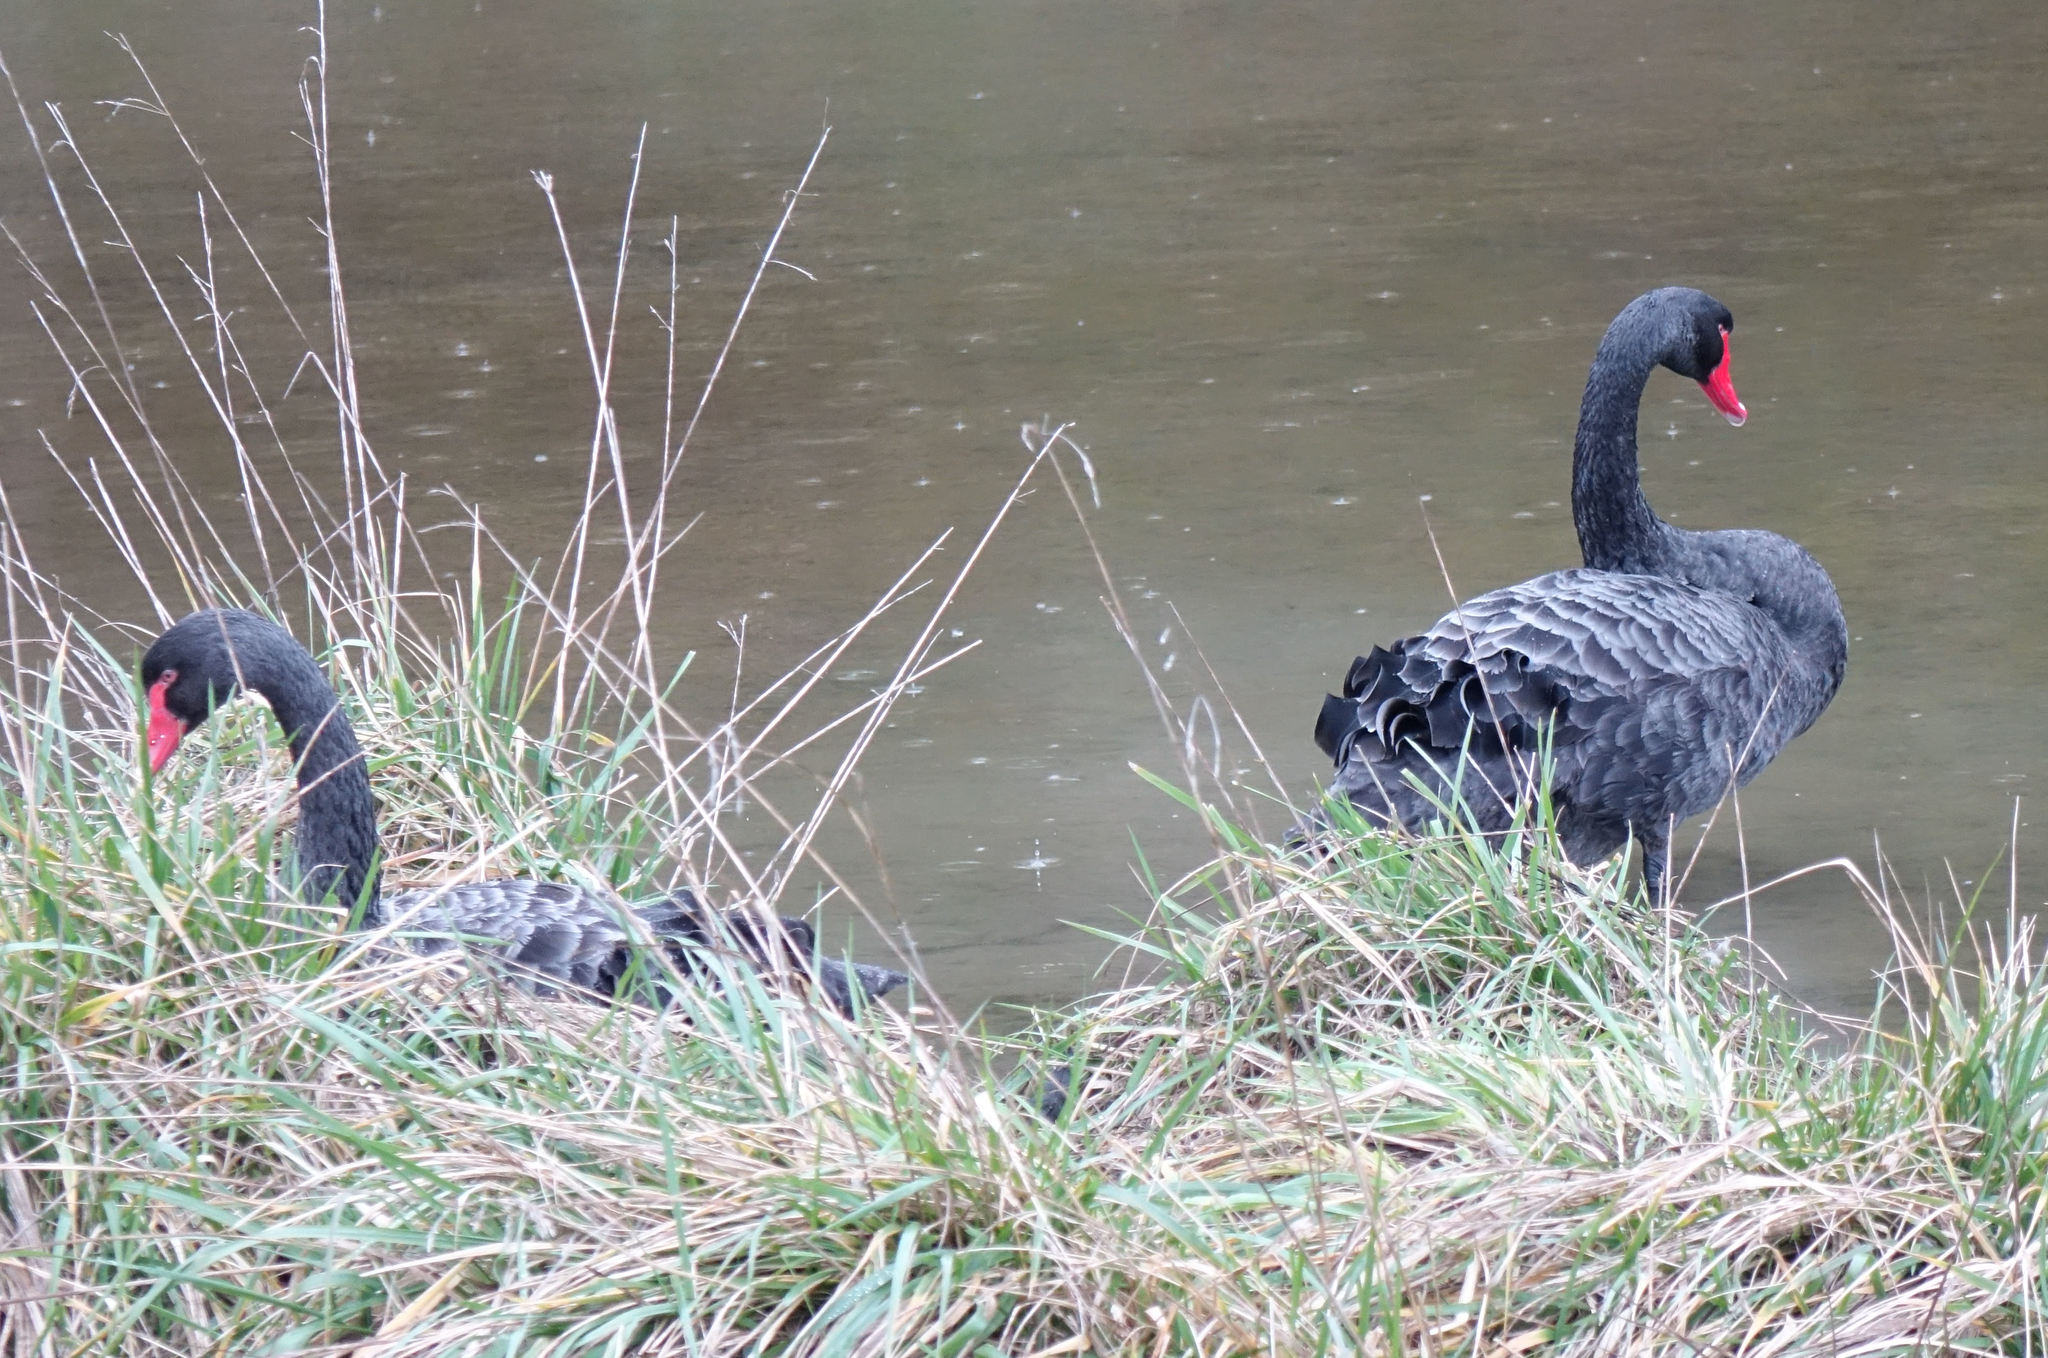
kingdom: Animalia
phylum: Chordata
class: Aves
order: Anseriformes
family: Anatidae
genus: Cygnus
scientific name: Cygnus atratus
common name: Black swan
